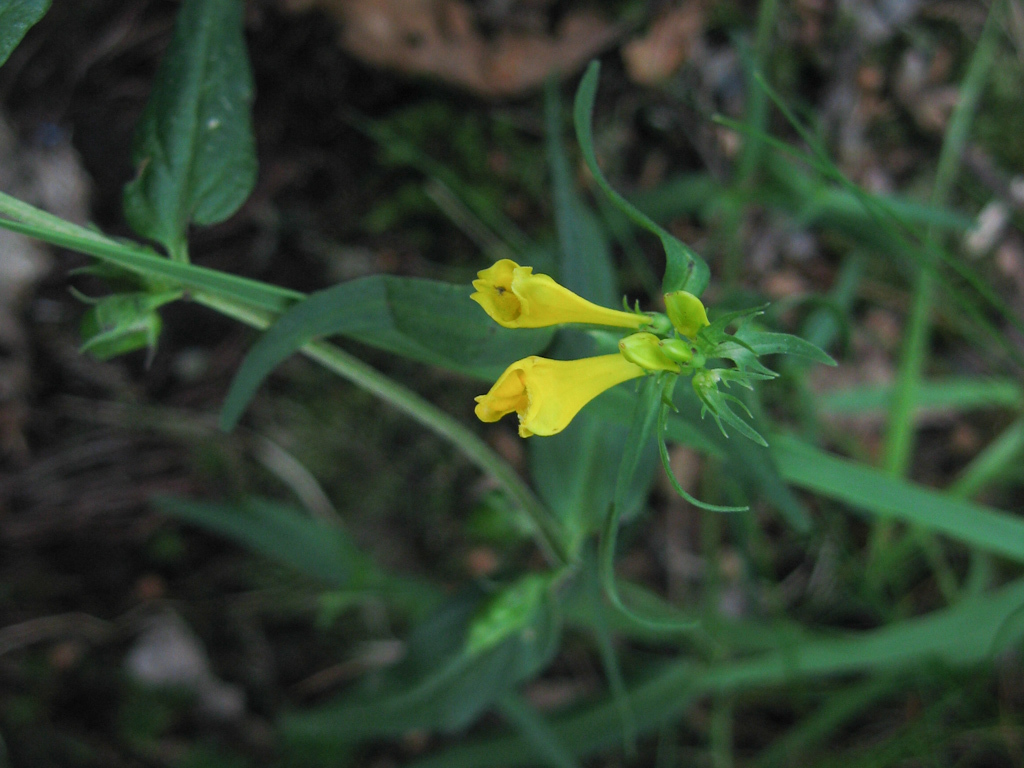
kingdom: Plantae
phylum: Tracheophyta
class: Magnoliopsida
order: Lamiales
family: Orobanchaceae
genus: Melampyrum
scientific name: Melampyrum pratense
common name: Common cow-wheat
